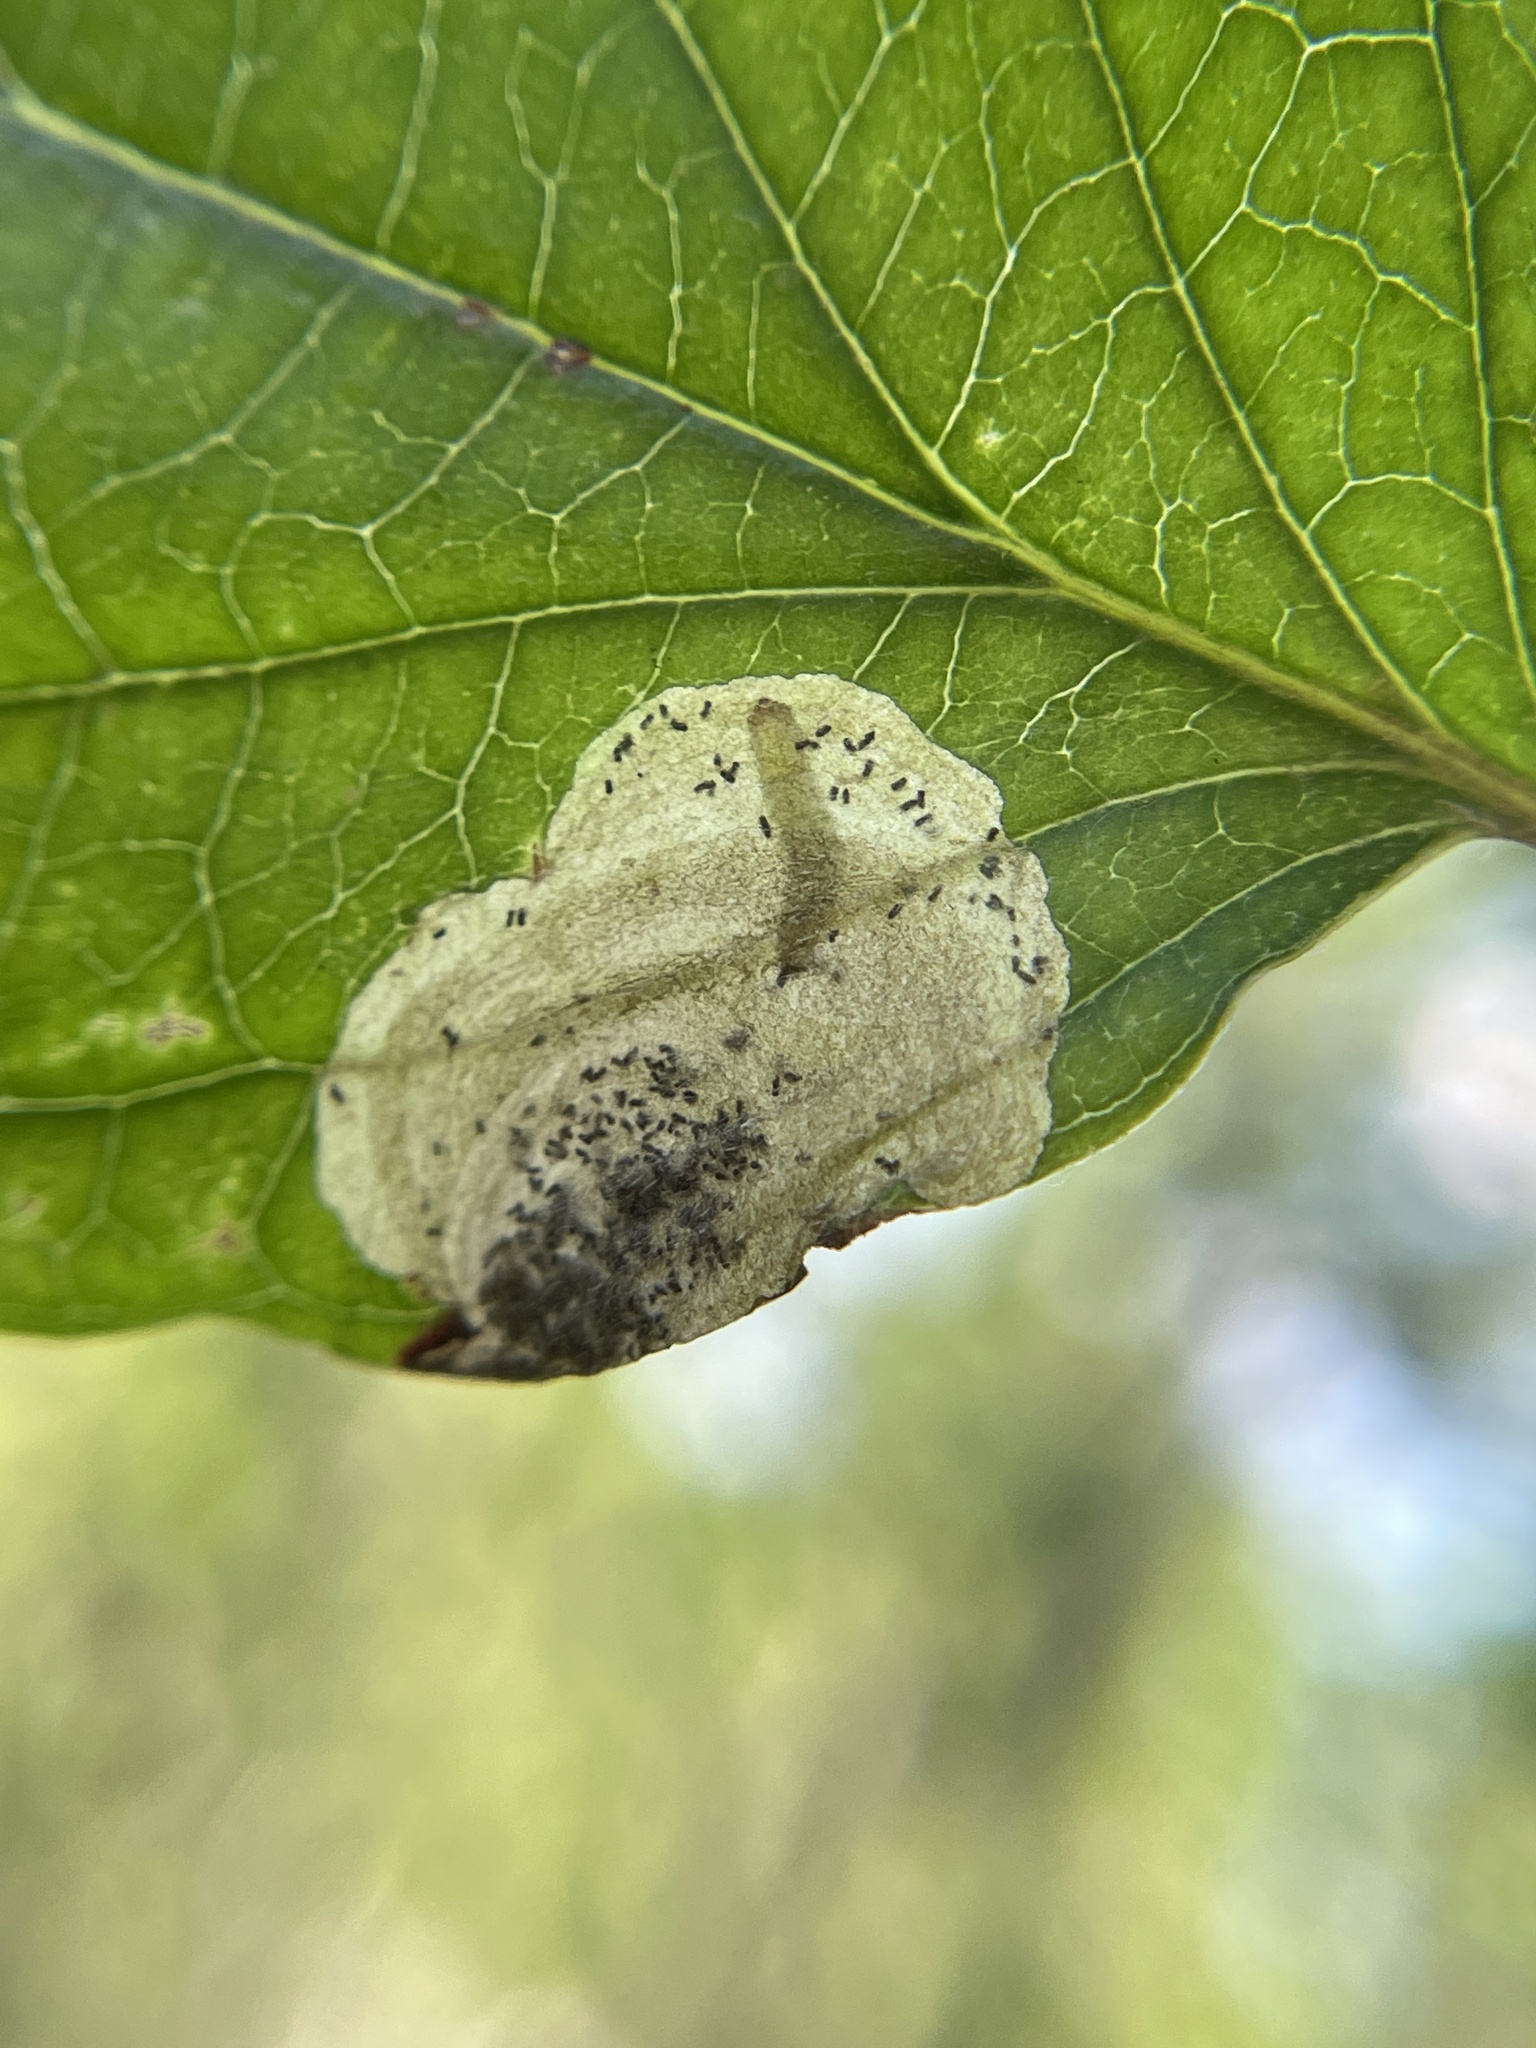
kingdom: Animalia
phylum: Arthropoda
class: Insecta
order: Lepidoptera
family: Heliozelidae
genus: Antispila
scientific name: Antispila freemani
